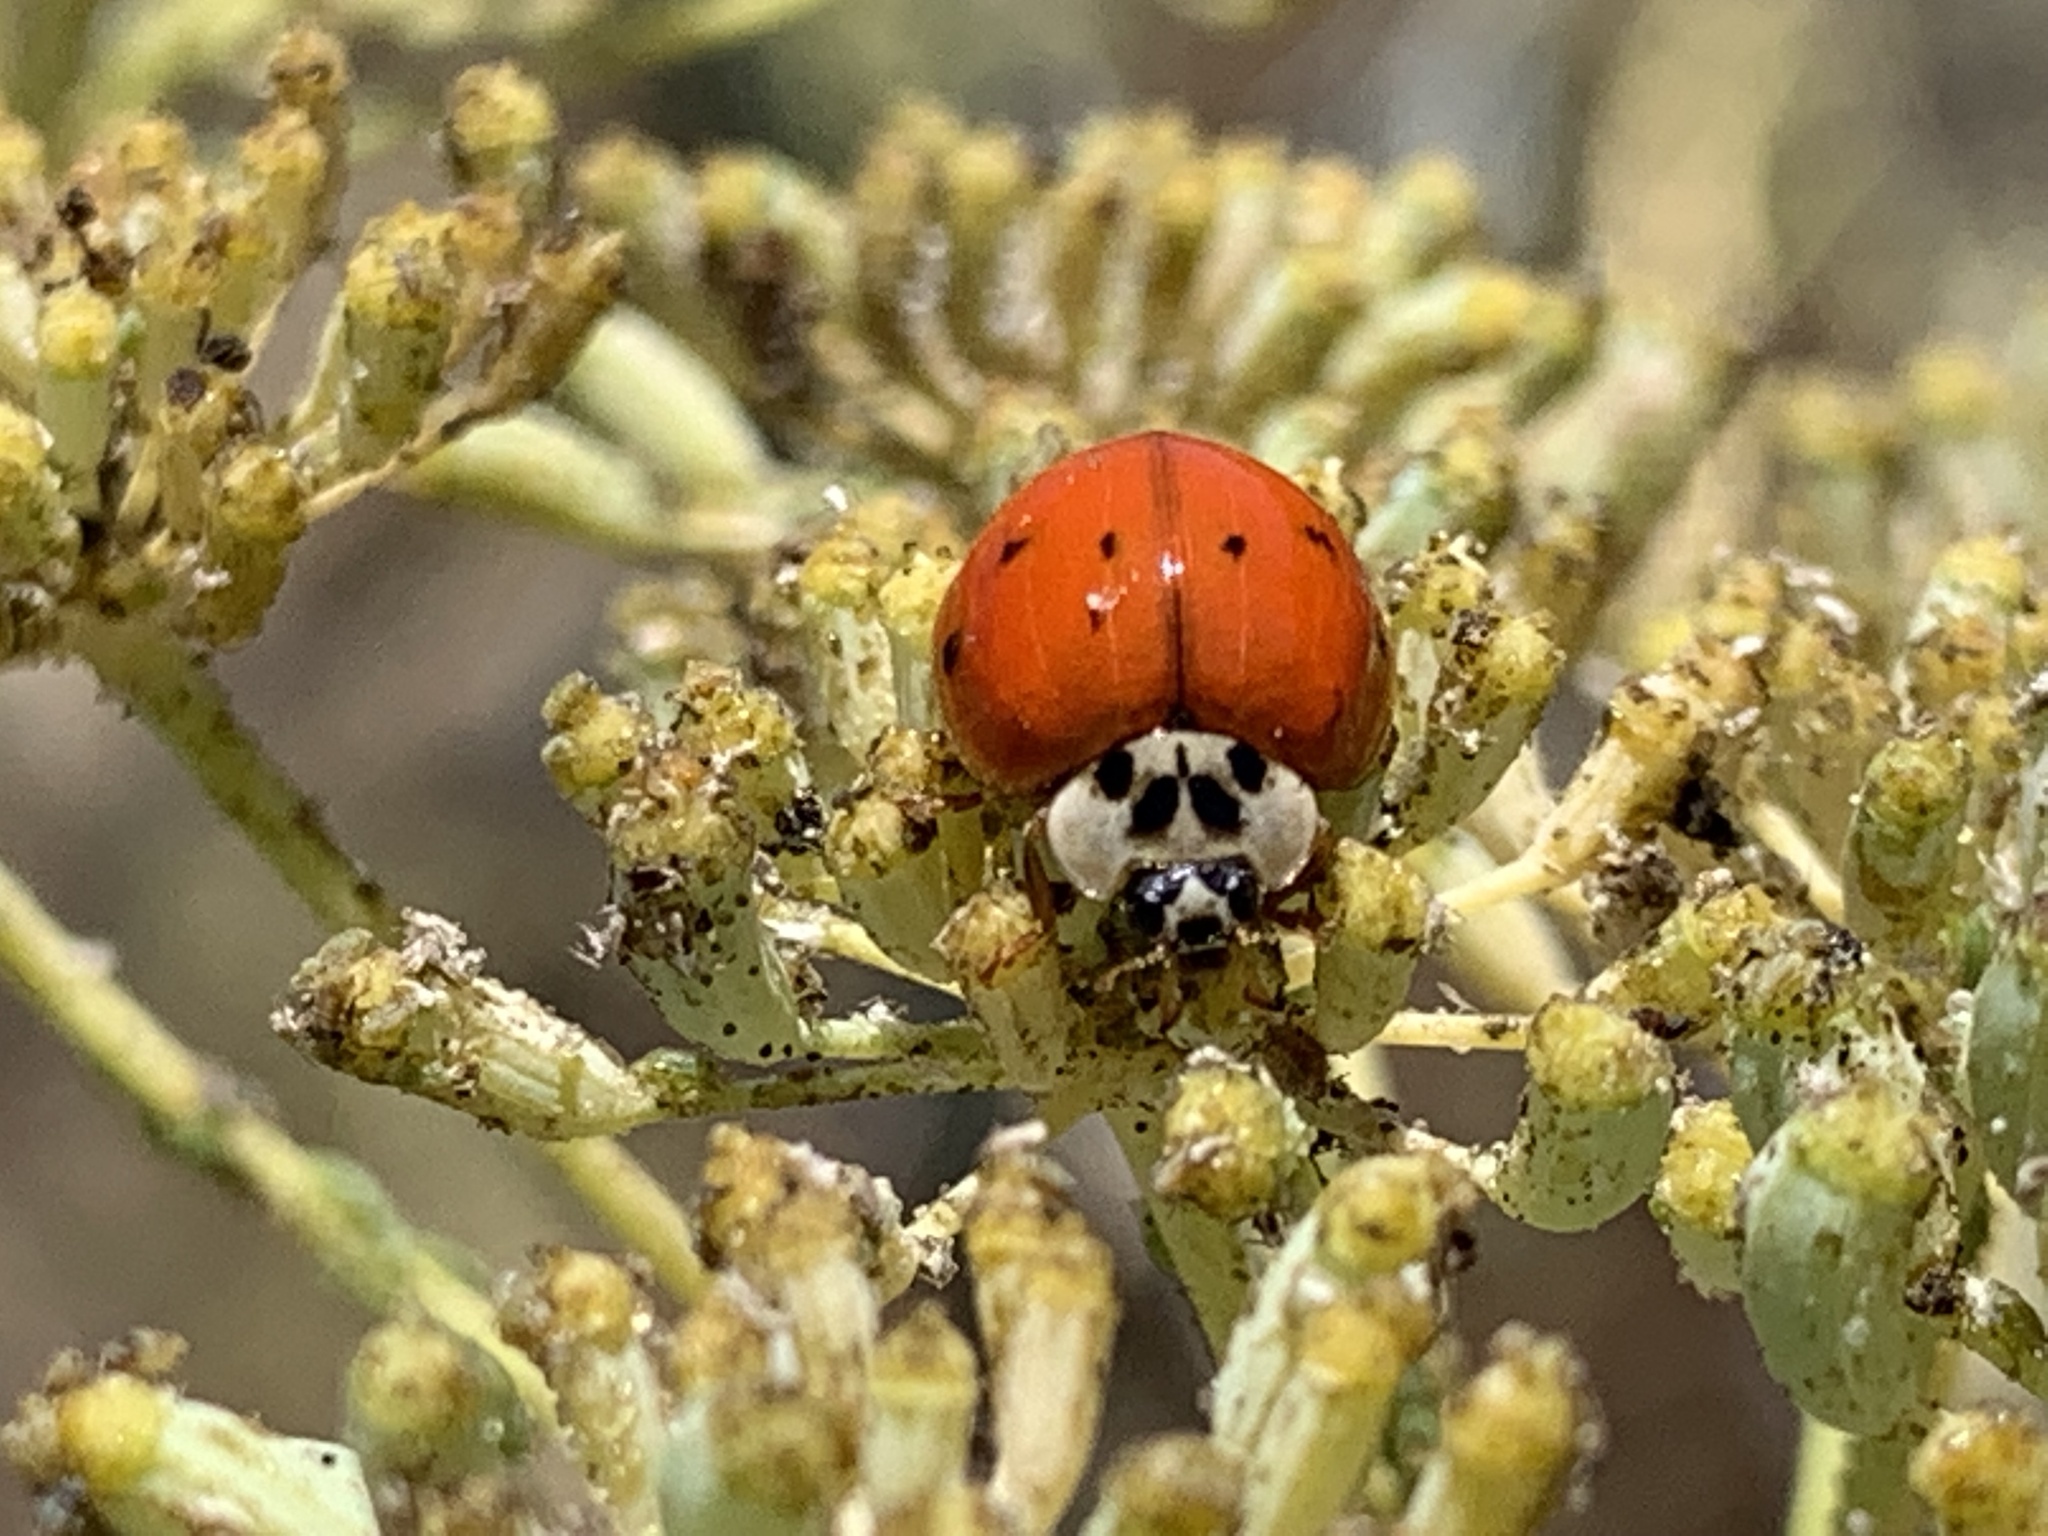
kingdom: Animalia
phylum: Arthropoda
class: Insecta
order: Coleoptera
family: Coccinellidae
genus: Harmonia
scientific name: Harmonia axyridis
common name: Harlequin ladybird
